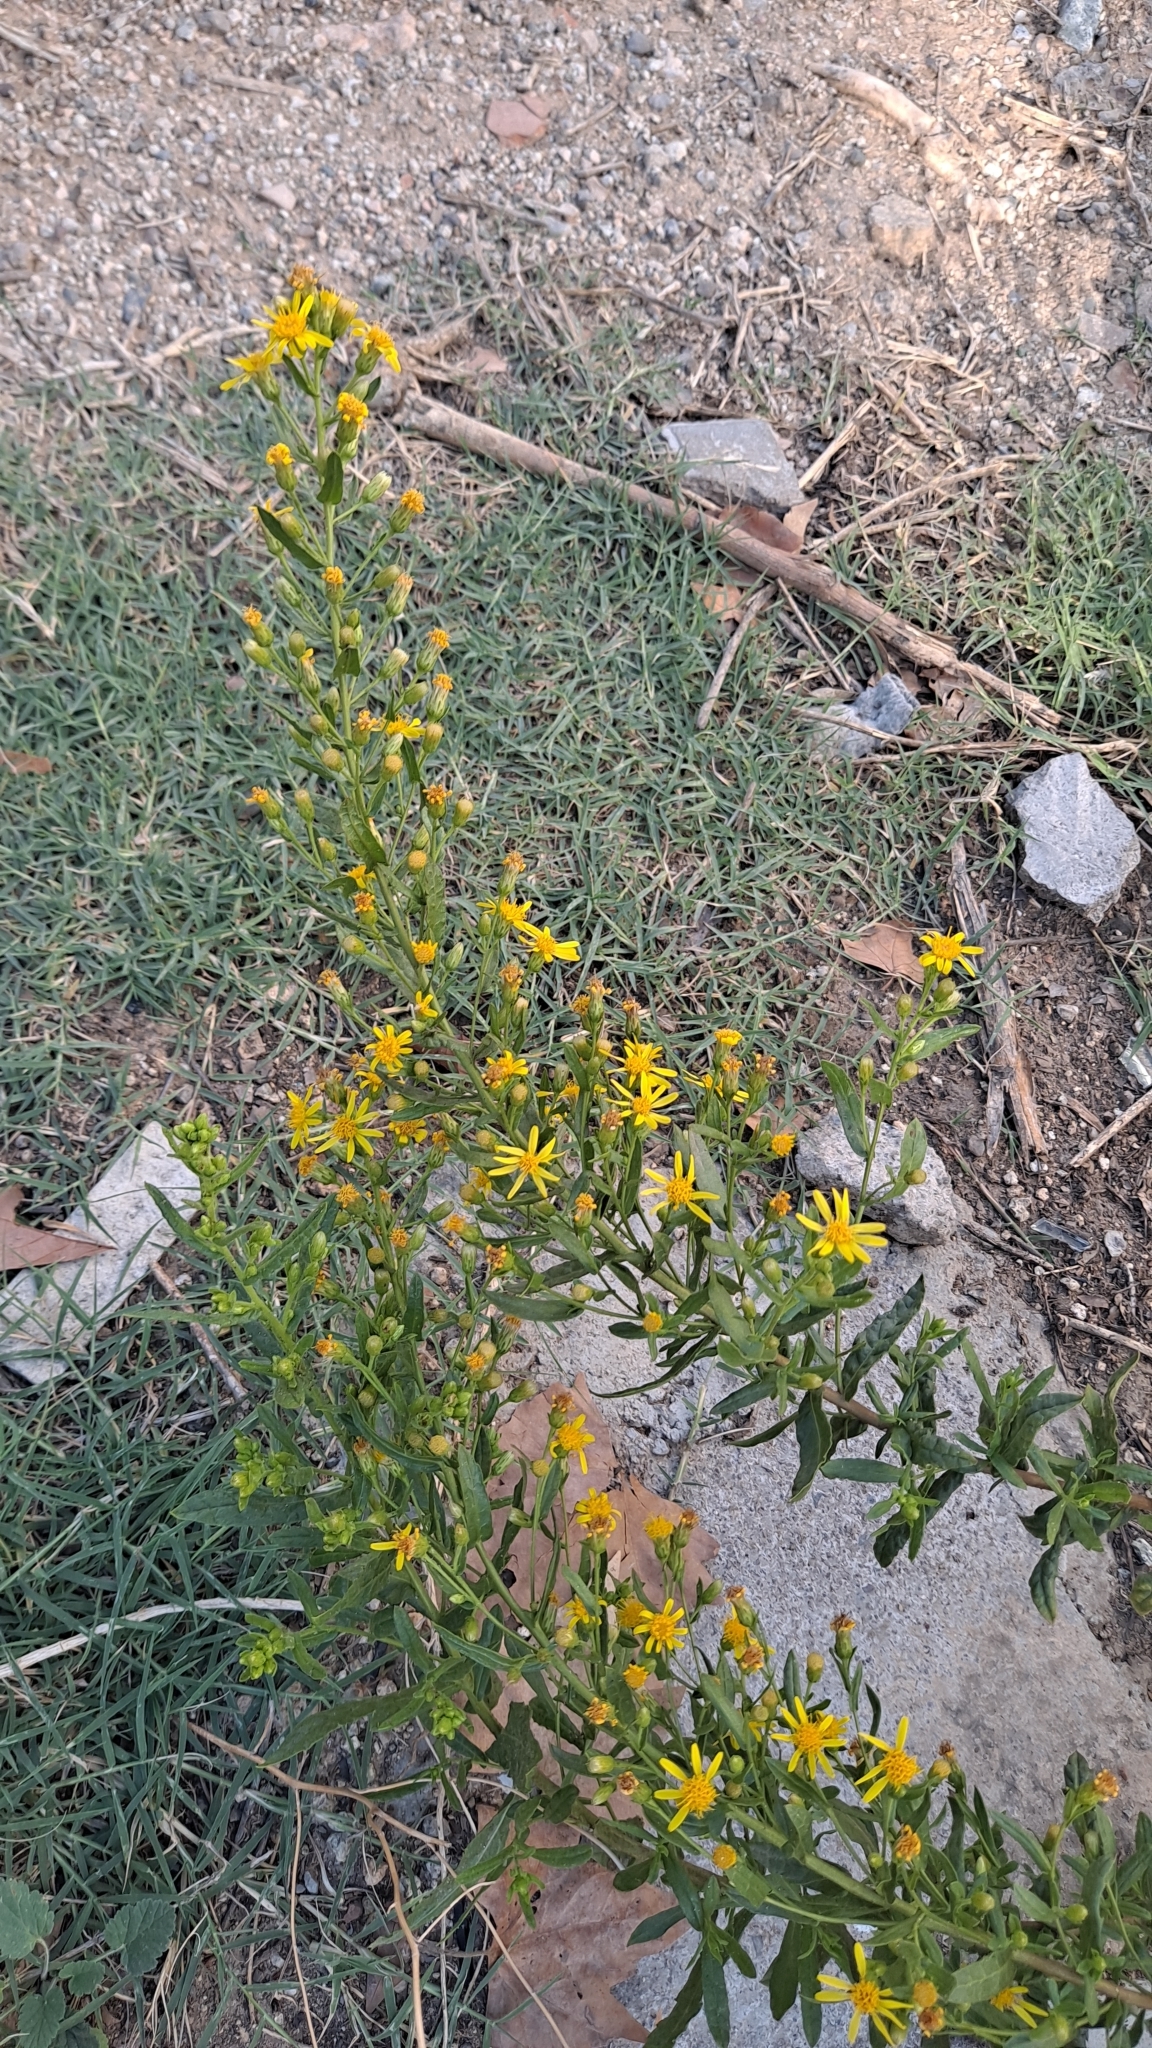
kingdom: Plantae
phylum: Tracheophyta
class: Magnoliopsida
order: Asterales
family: Asteraceae
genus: Dittrichia
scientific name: Dittrichia viscosa
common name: Woody fleabane
